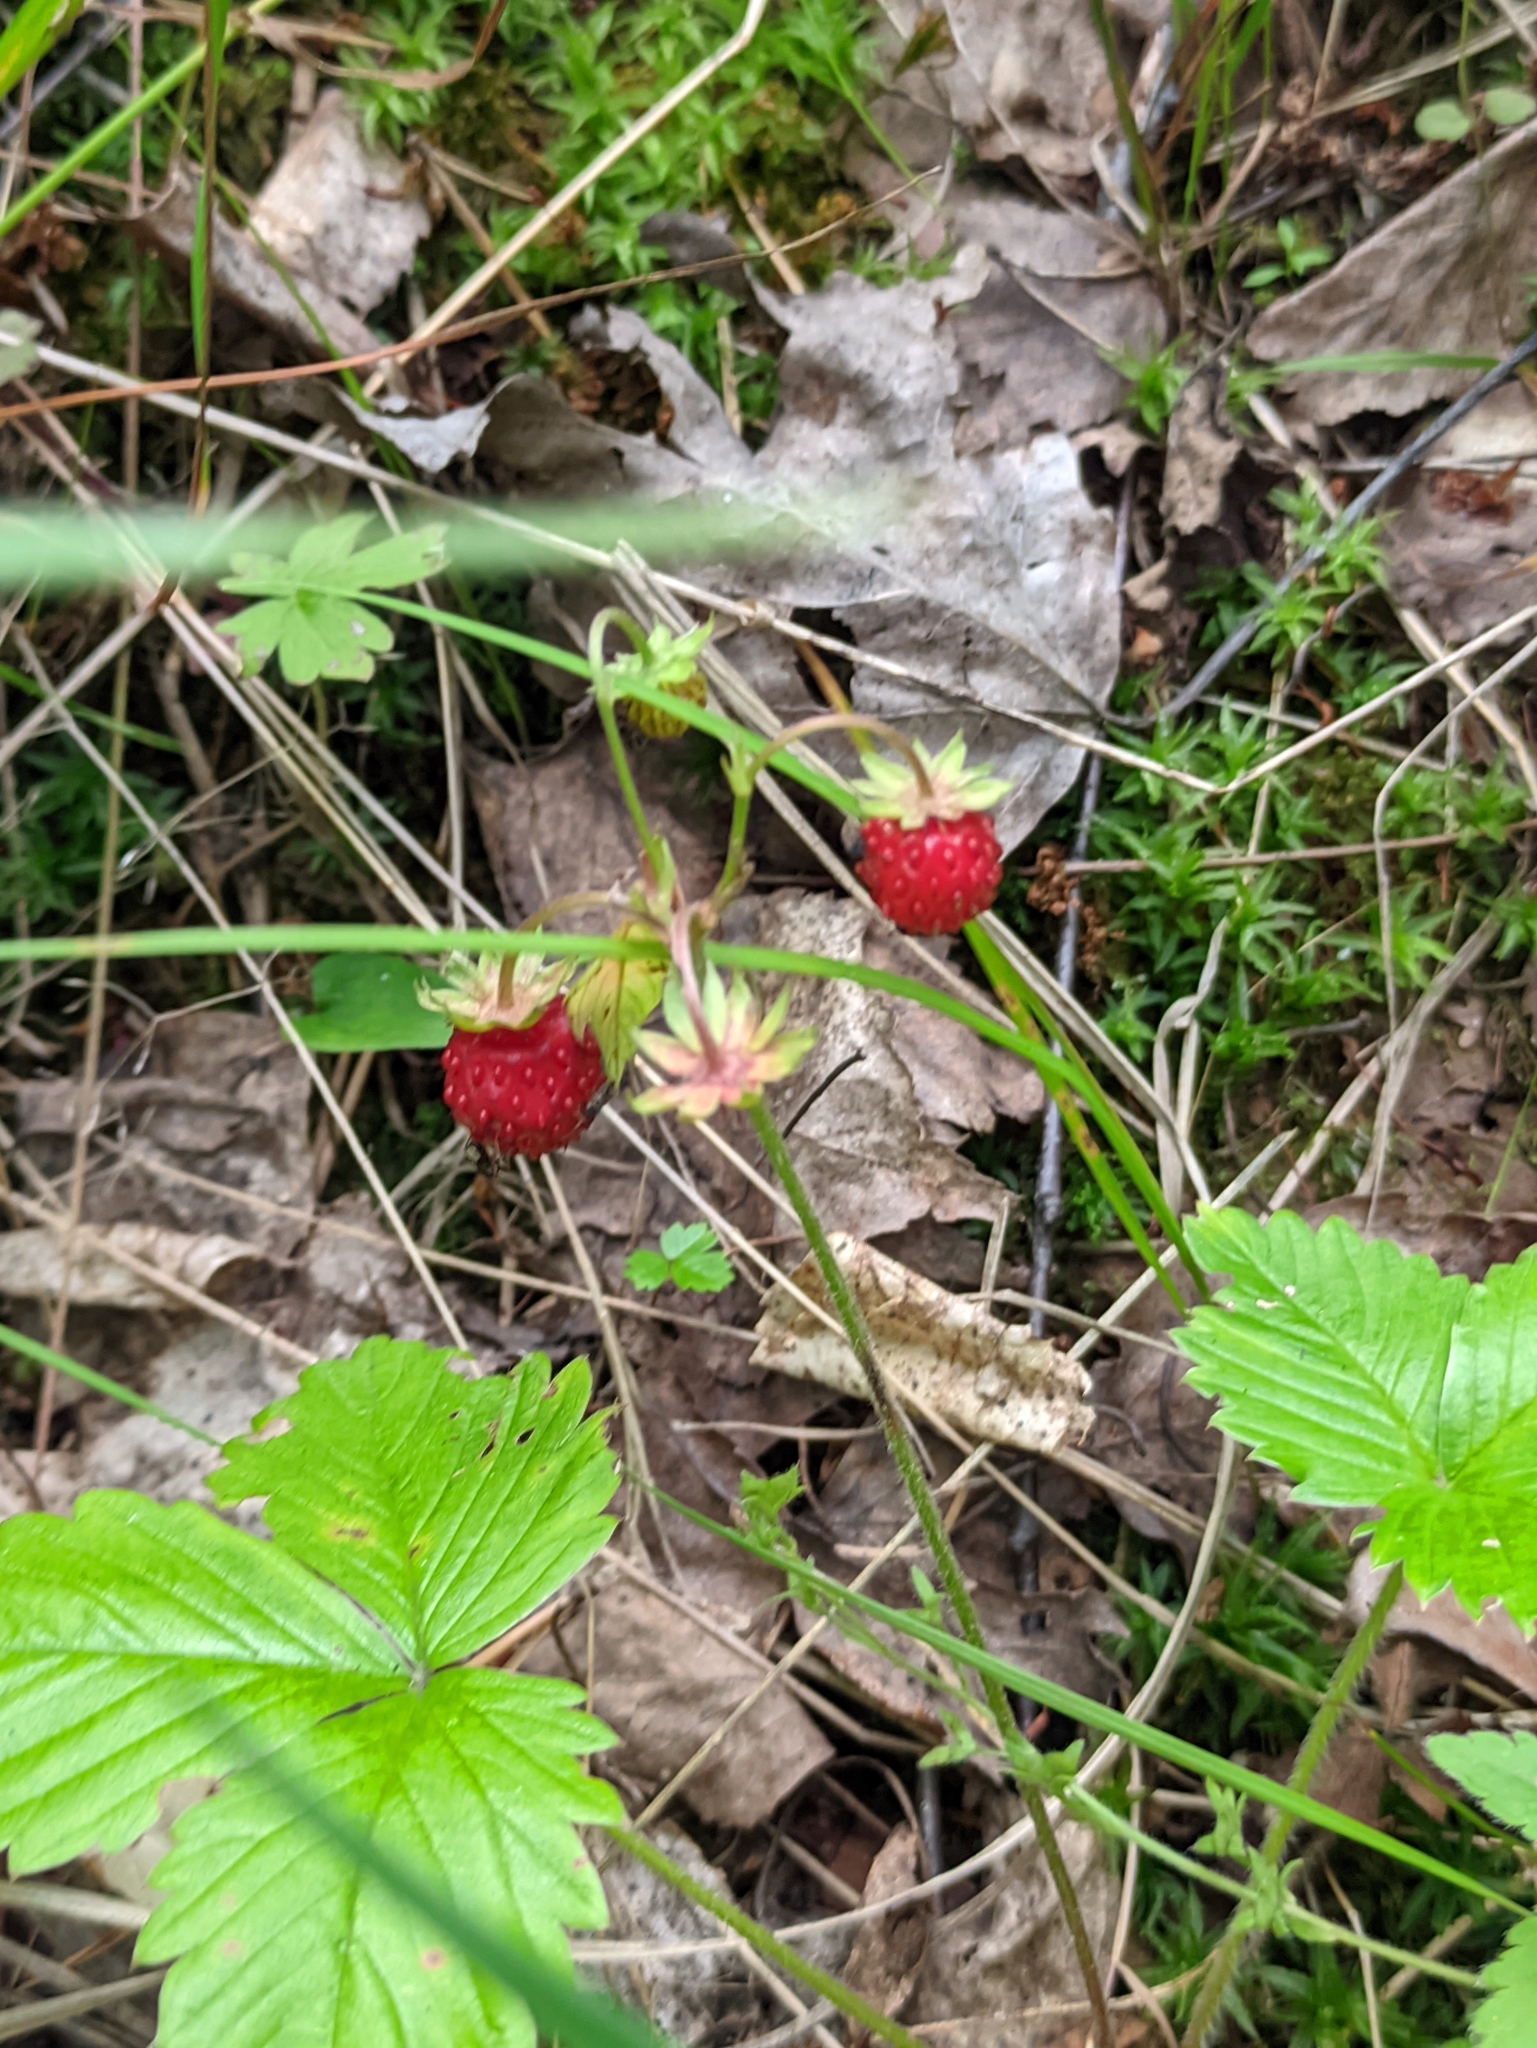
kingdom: Plantae
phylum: Tracheophyta
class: Magnoliopsida
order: Rosales
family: Rosaceae
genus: Fragaria
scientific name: Fragaria vesca
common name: Wild strawberry
